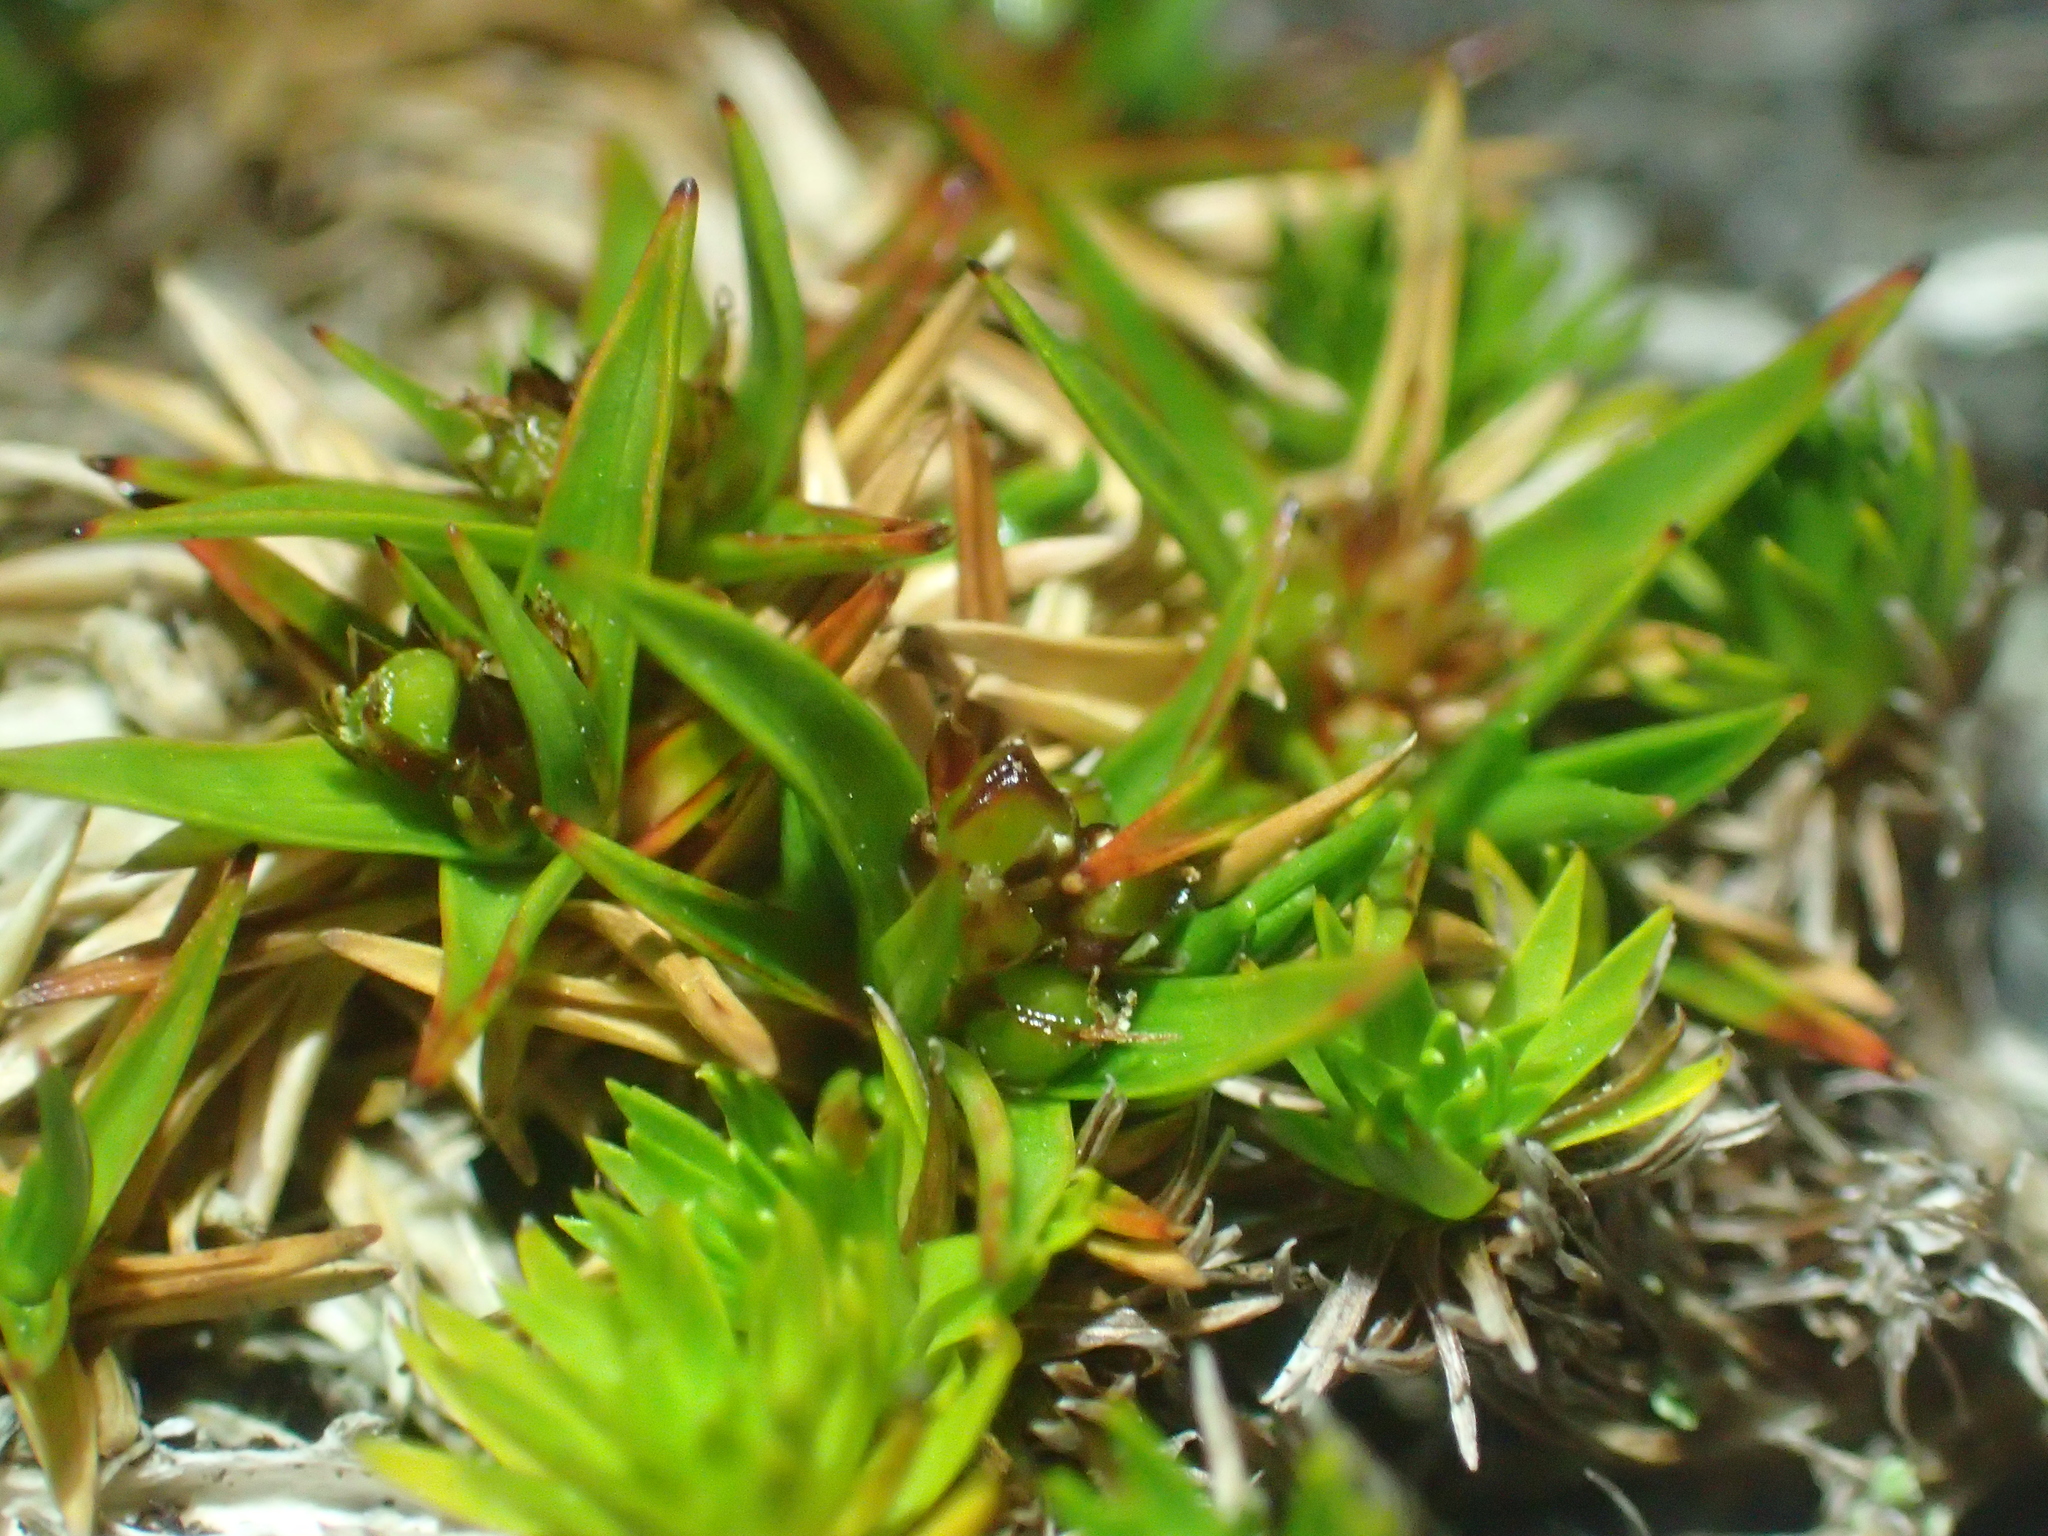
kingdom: Plantae
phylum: Tracheophyta
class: Liliopsida
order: Poales
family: Juncaceae
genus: Luzula
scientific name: Luzula colensoi
